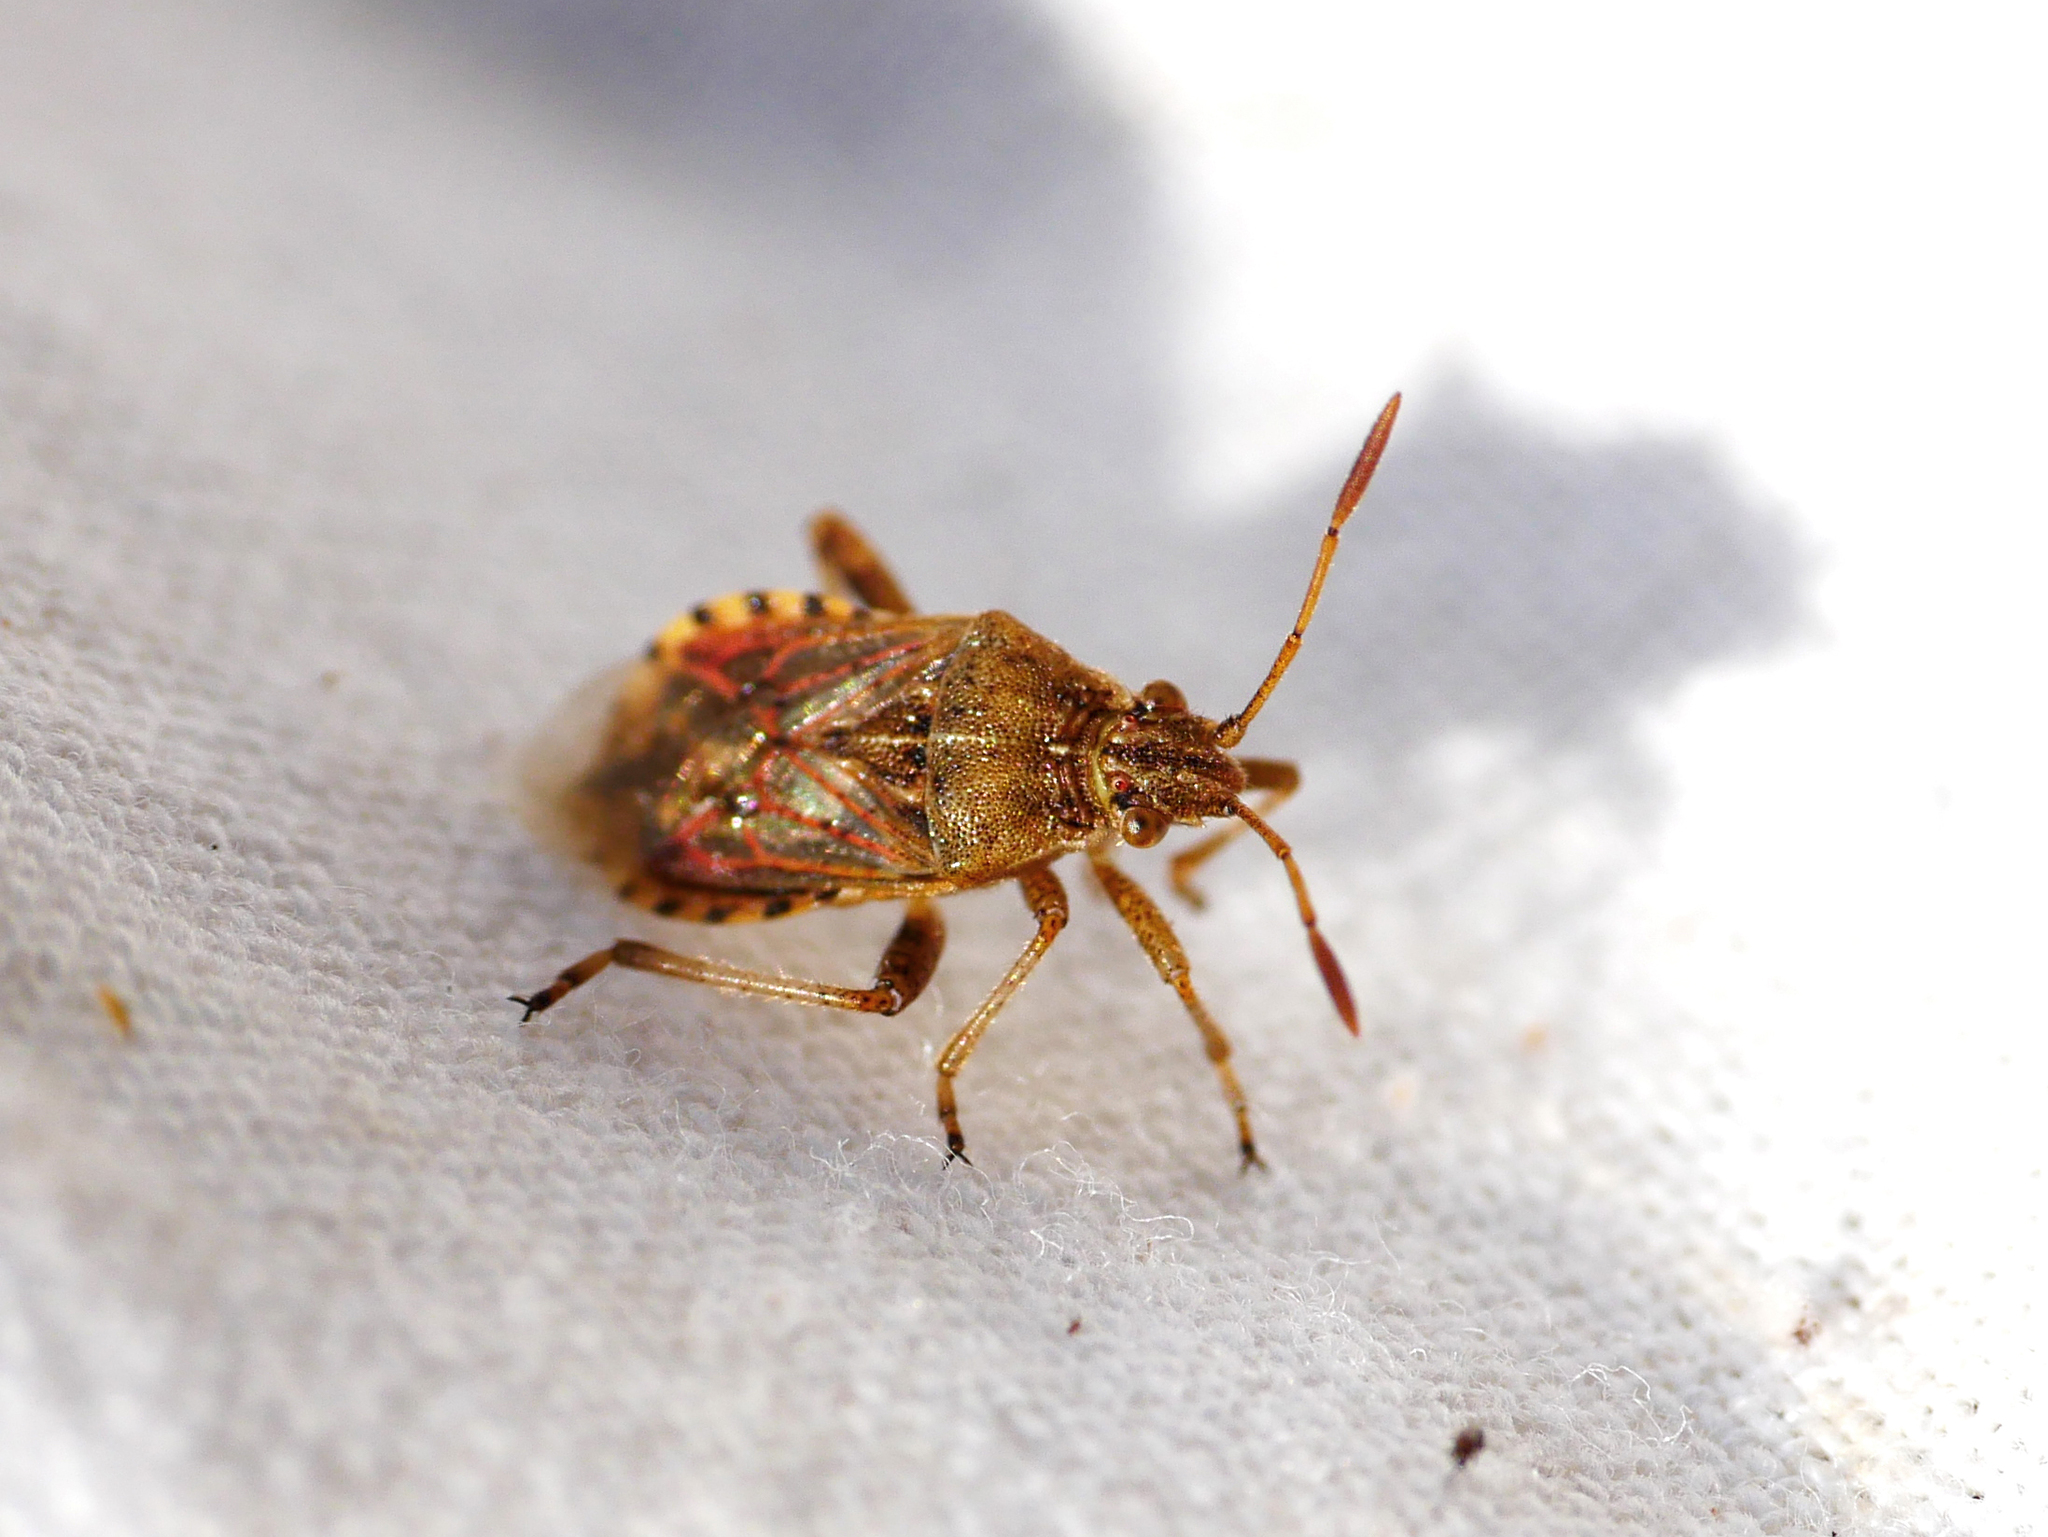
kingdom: Animalia
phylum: Arthropoda
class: Insecta
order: Hemiptera
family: Rhopalidae
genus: Stictopleurus
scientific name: Stictopleurus abutilon
